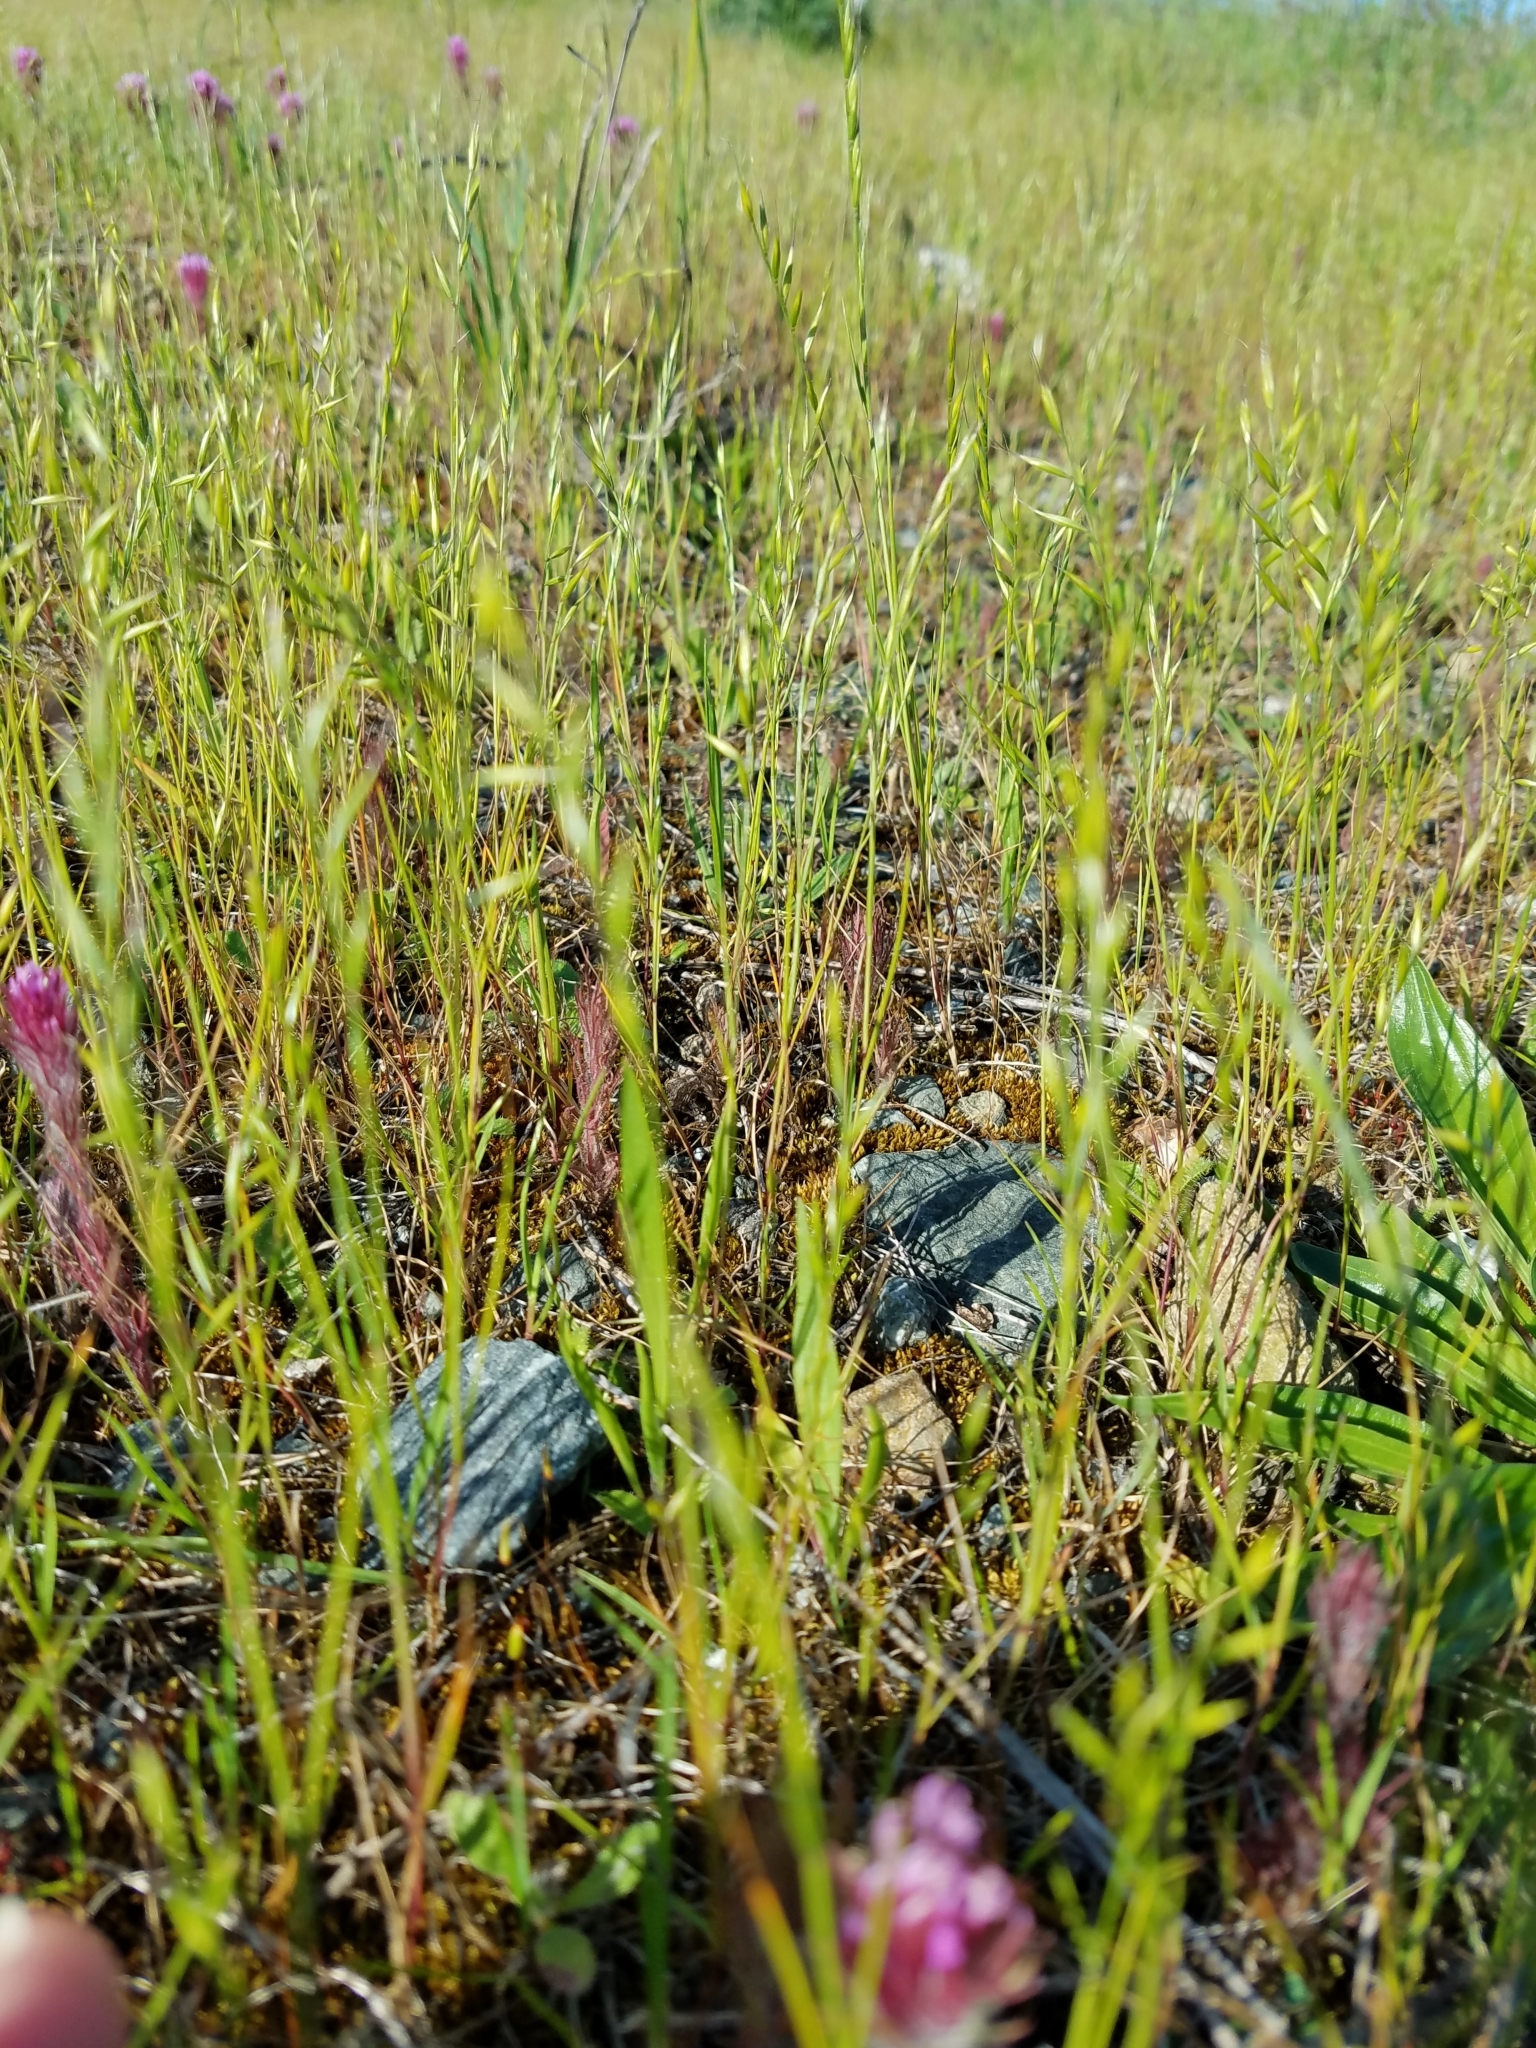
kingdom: Plantae
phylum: Tracheophyta
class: Liliopsida
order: Poales
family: Poaceae
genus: Festuca
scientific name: Festuca microstachys
